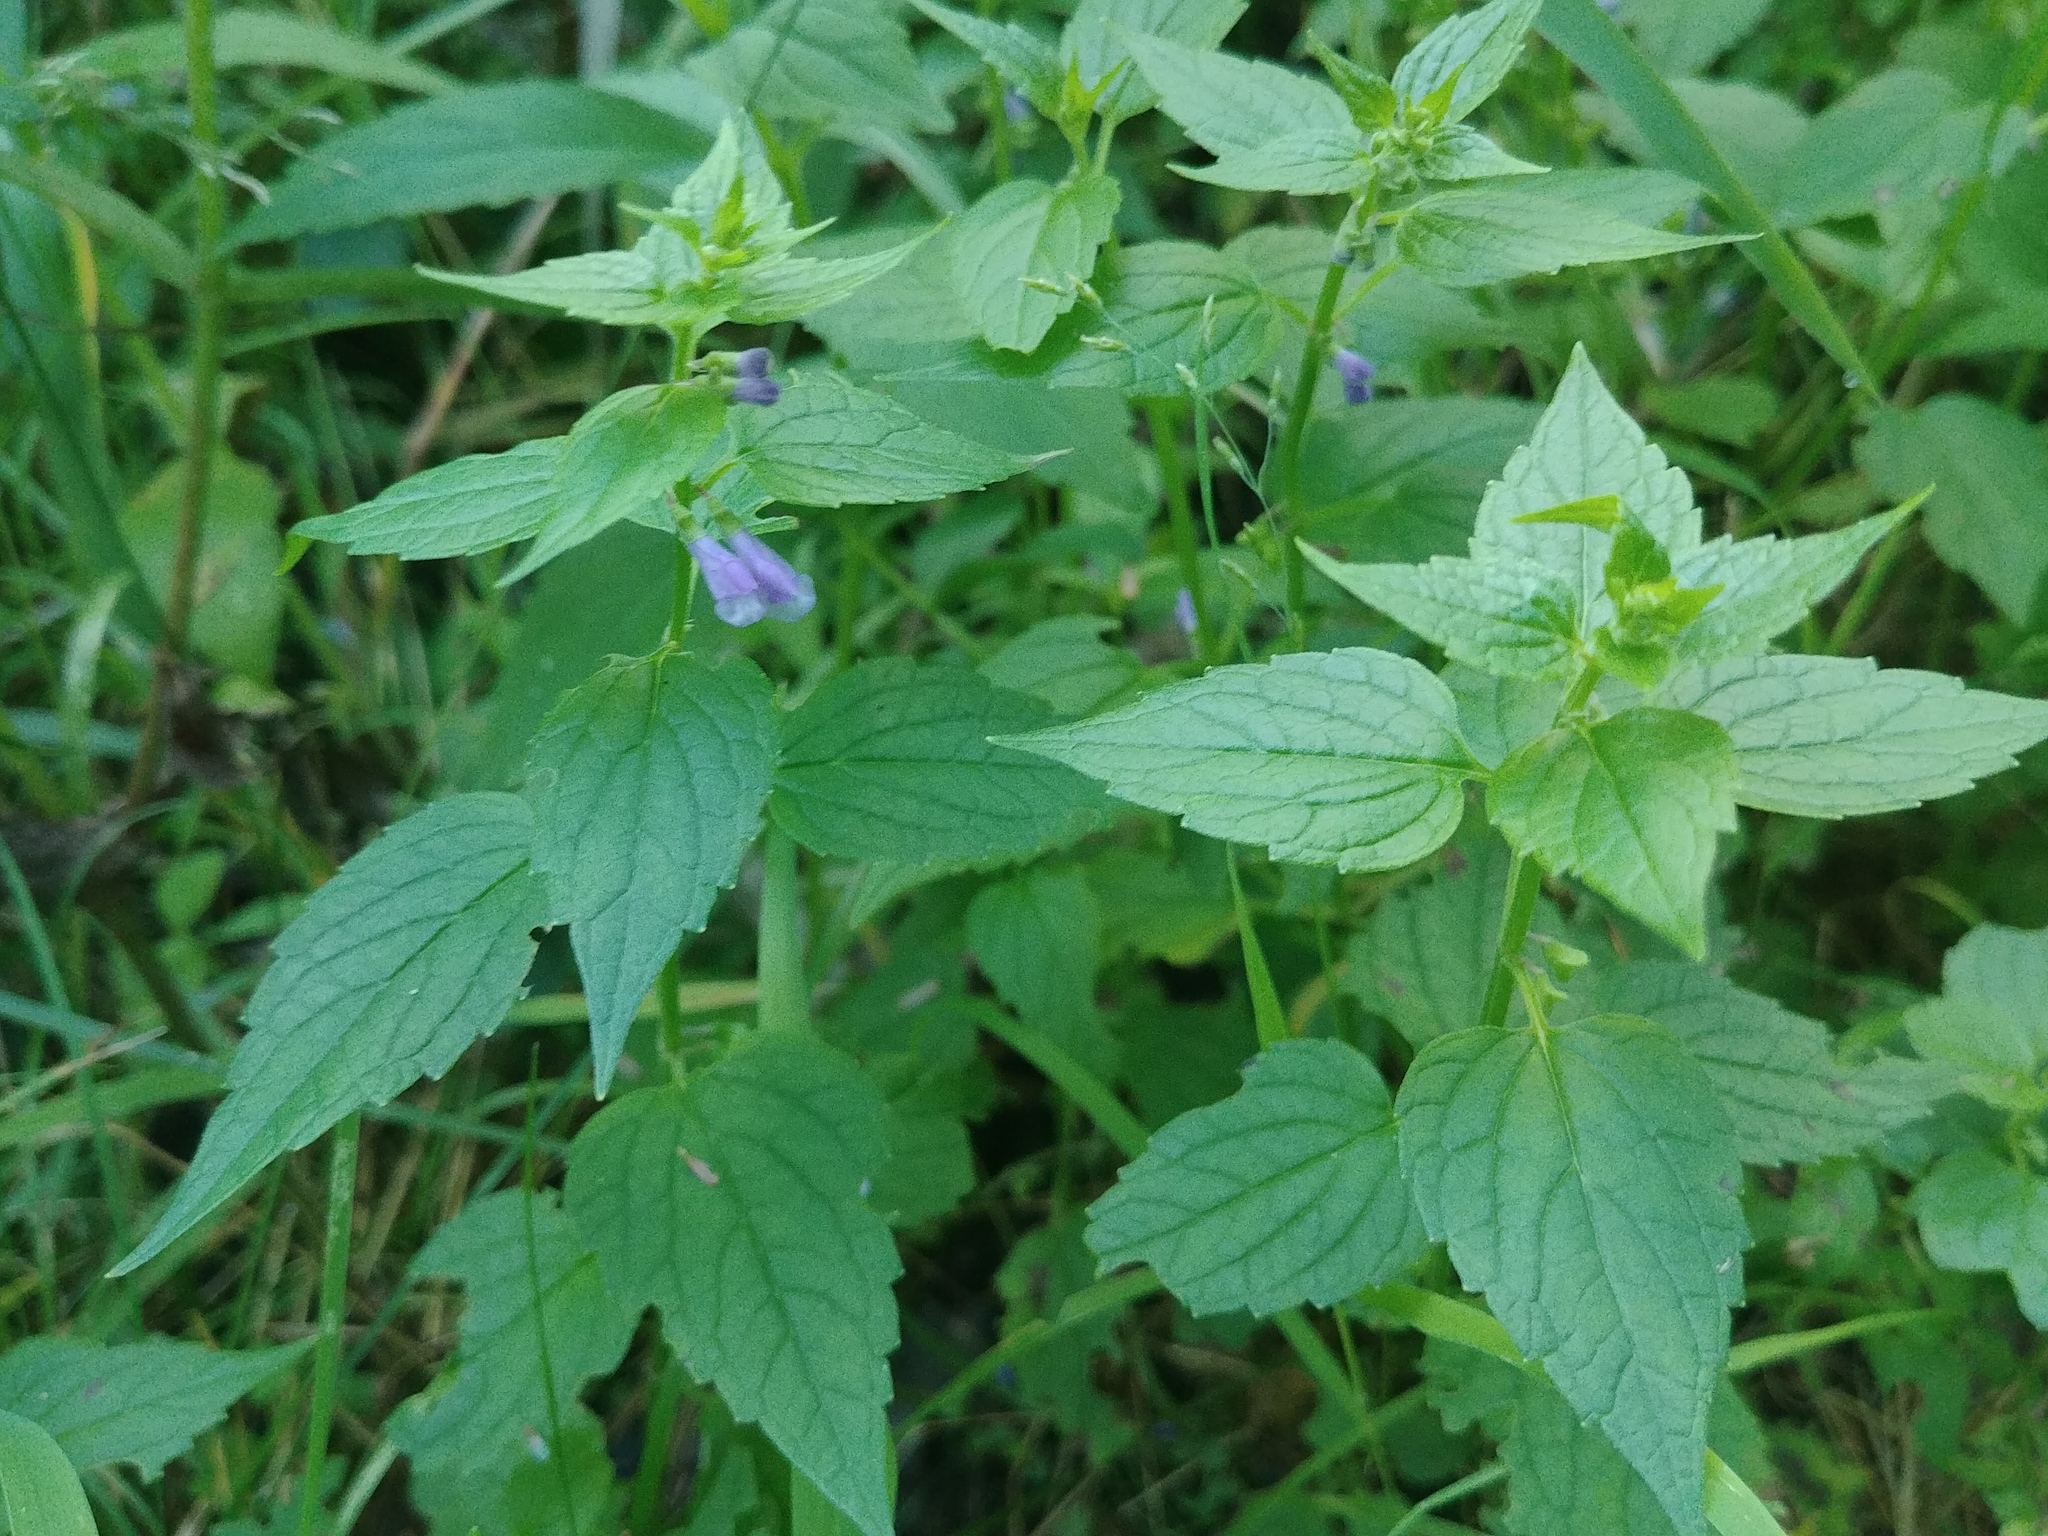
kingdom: Plantae
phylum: Tracheophyta
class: Magnoliopsida
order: Lamiales
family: Lamiaceae
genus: Scutellaria
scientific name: Scutellaria lateriflora
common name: Blue skullcap
